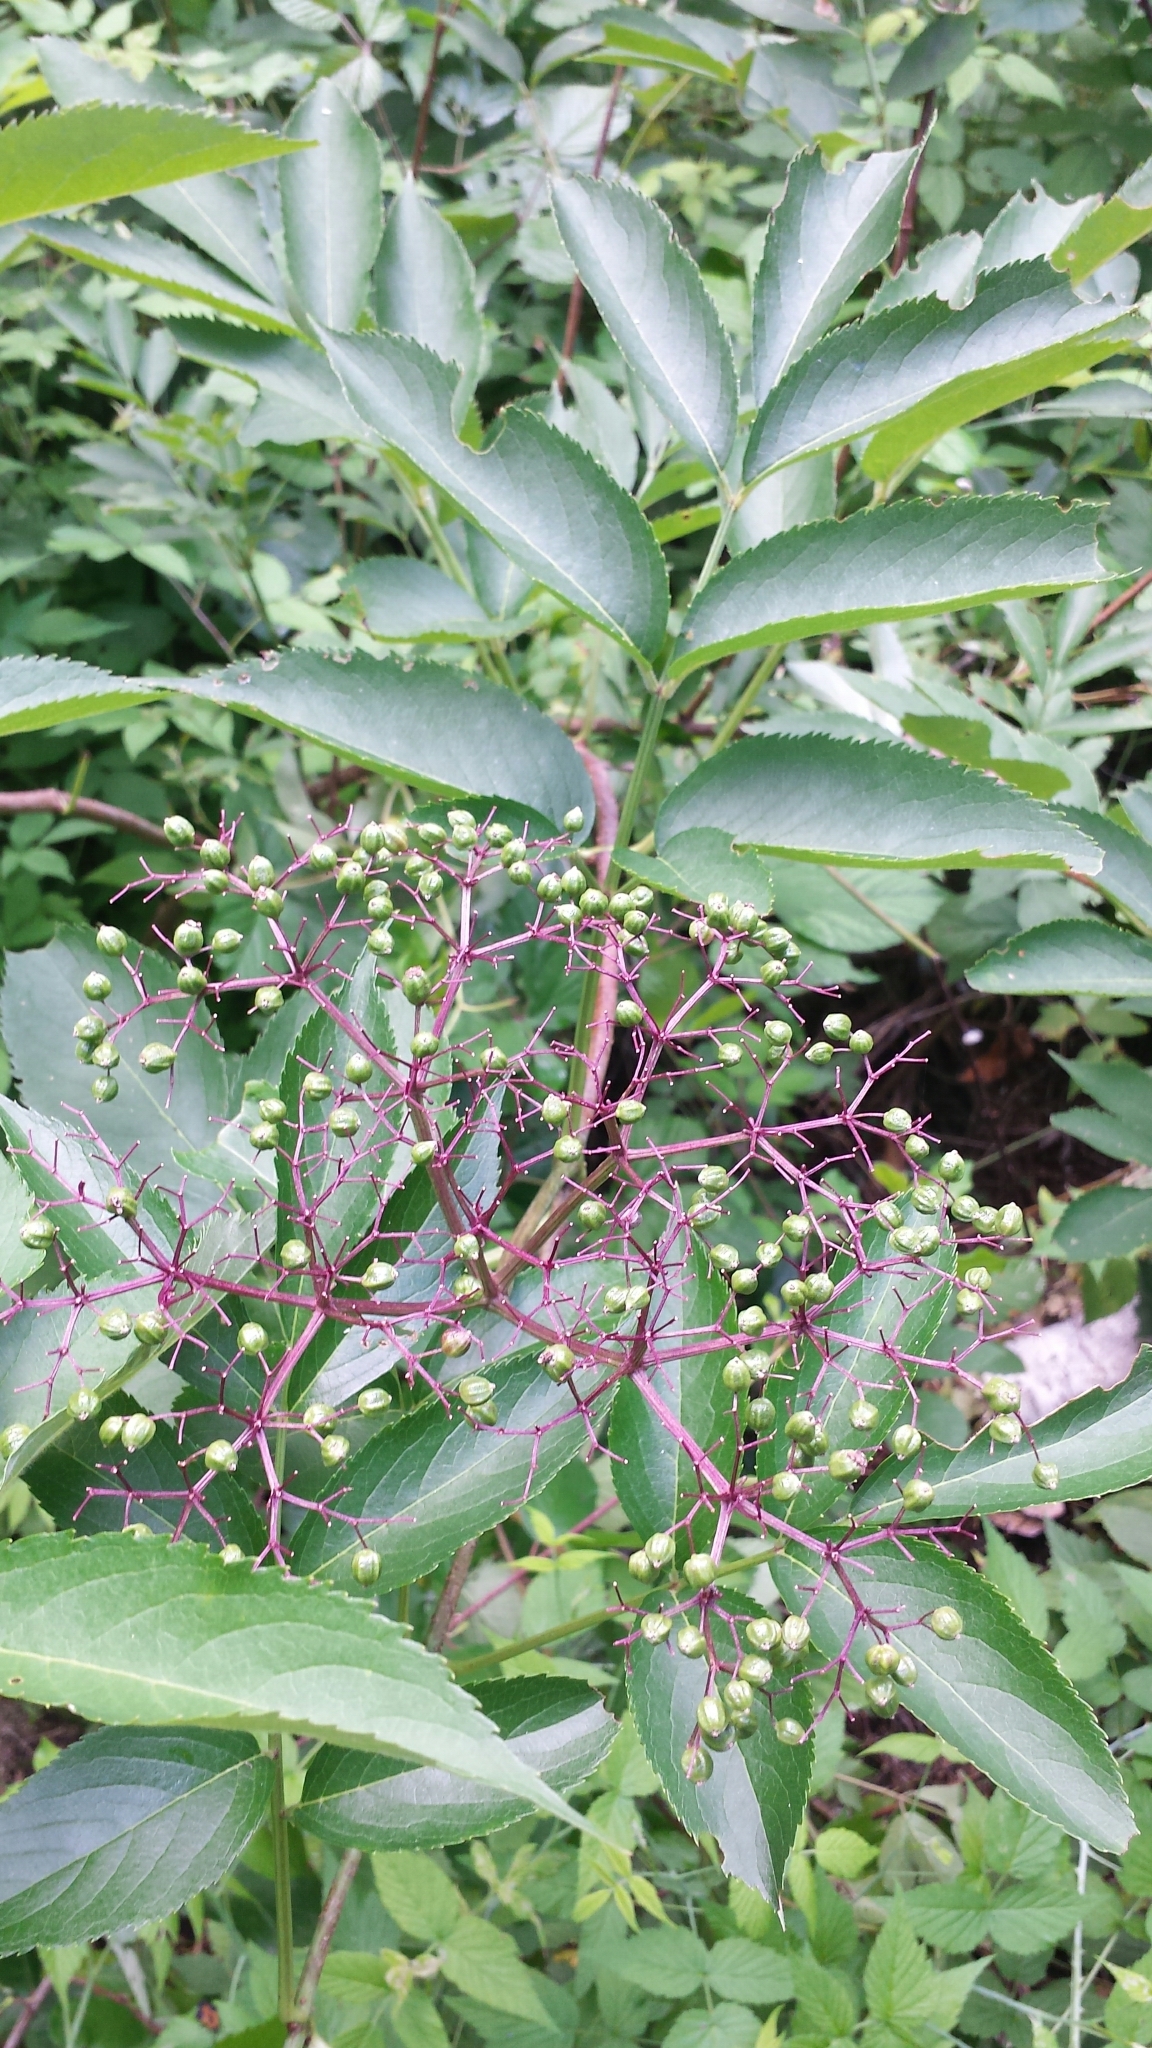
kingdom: Plantae
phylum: Tracheophyta
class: Magnoliopsida
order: Dipsacales
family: Viburnaceae
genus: Sambucus
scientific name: Sambucus canadensis
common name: American elder
